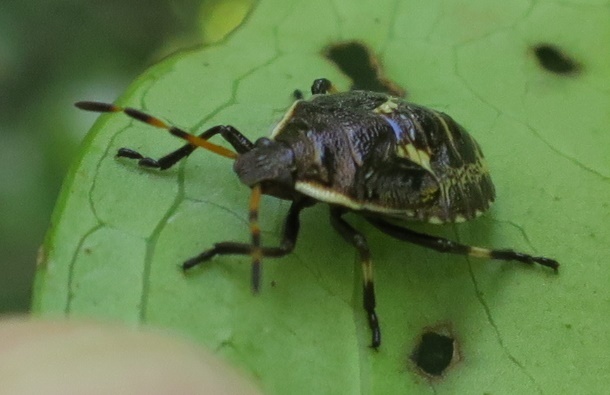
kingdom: Animalia
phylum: Arthropoda
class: Insecta
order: Hemiptera
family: Pentatomidae
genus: Cermatulus
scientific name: Cermatulus nasalis
